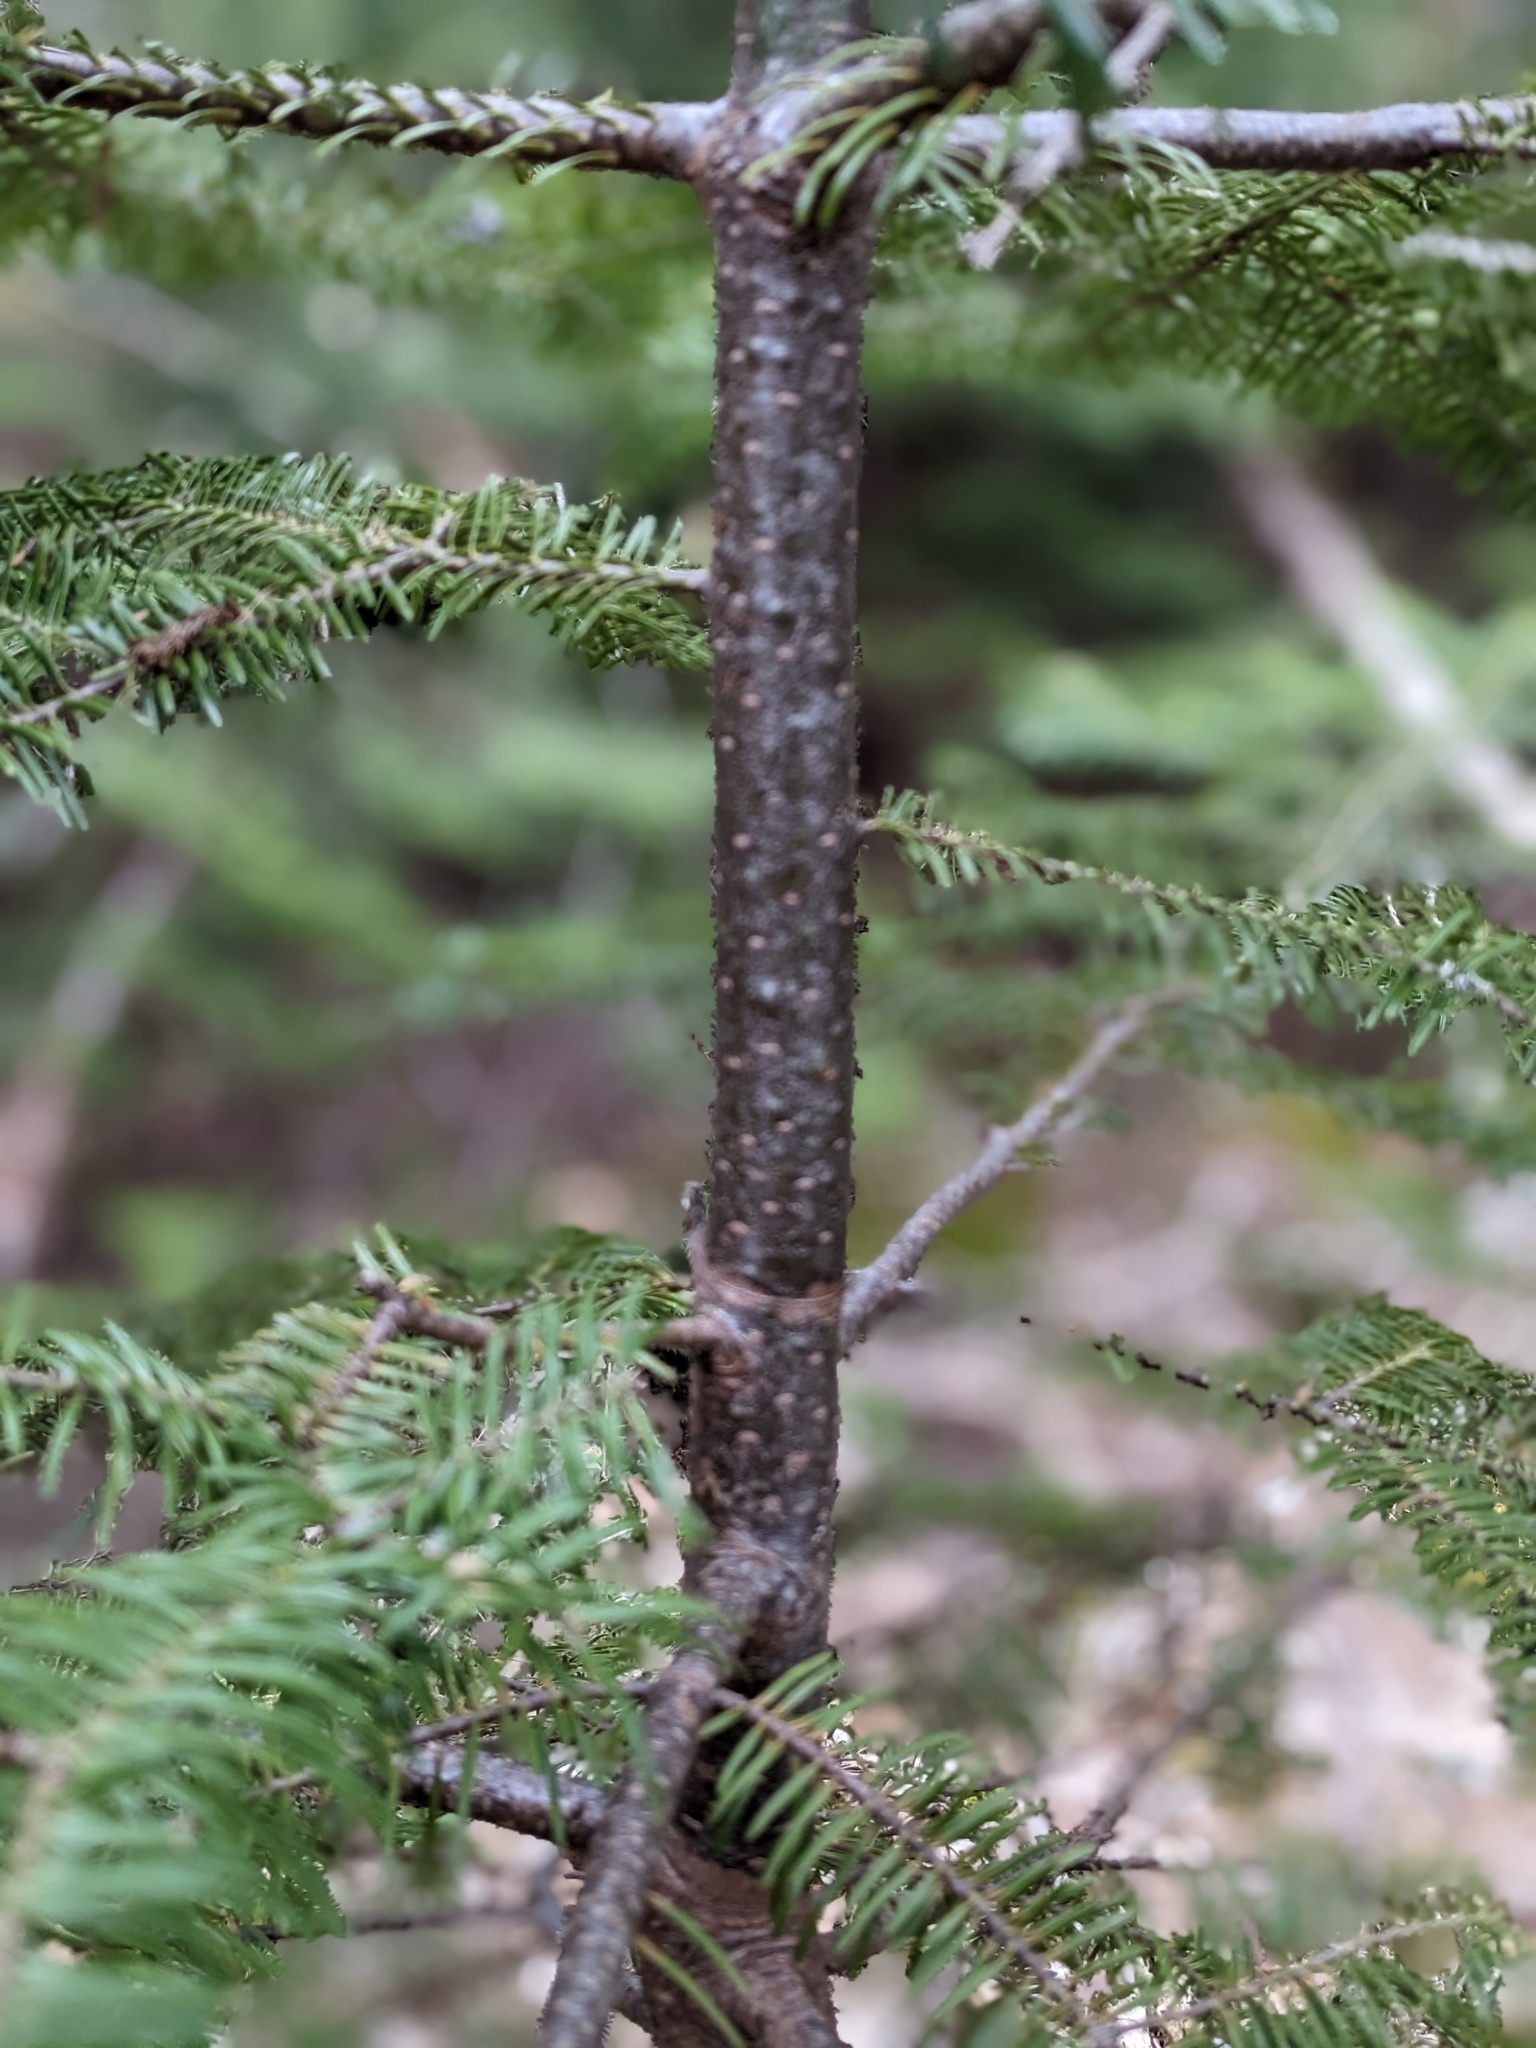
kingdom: Plantae
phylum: Tracheophyta
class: Pinopsida
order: Pinales
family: Pinaceae
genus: Abies
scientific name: Abies balsamea
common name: Balsam fir
